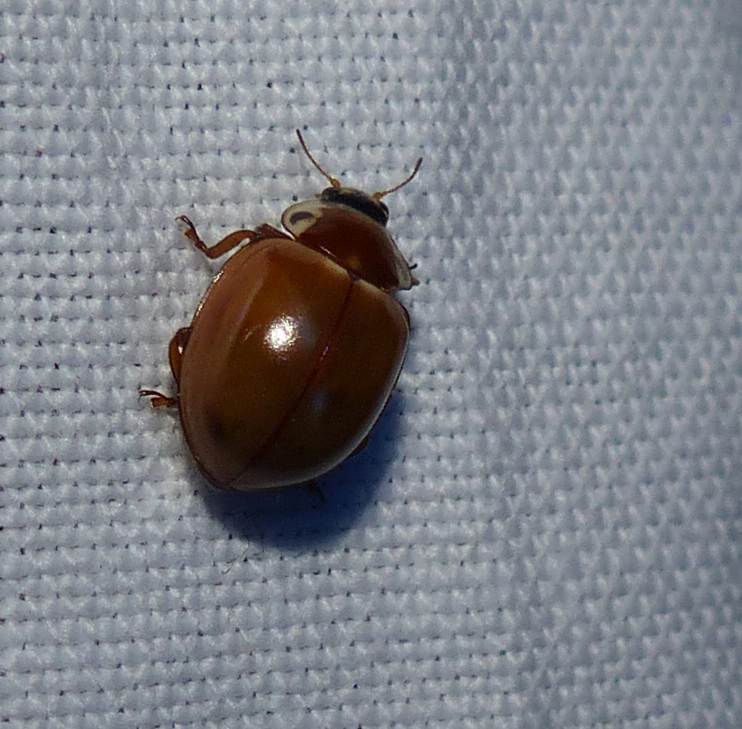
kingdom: Animalia
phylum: Arthropoda
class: Insecta
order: Coleoptera
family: Coccinellidae
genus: Myzia
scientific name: Myzia pullata
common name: Streaked lady beetle
